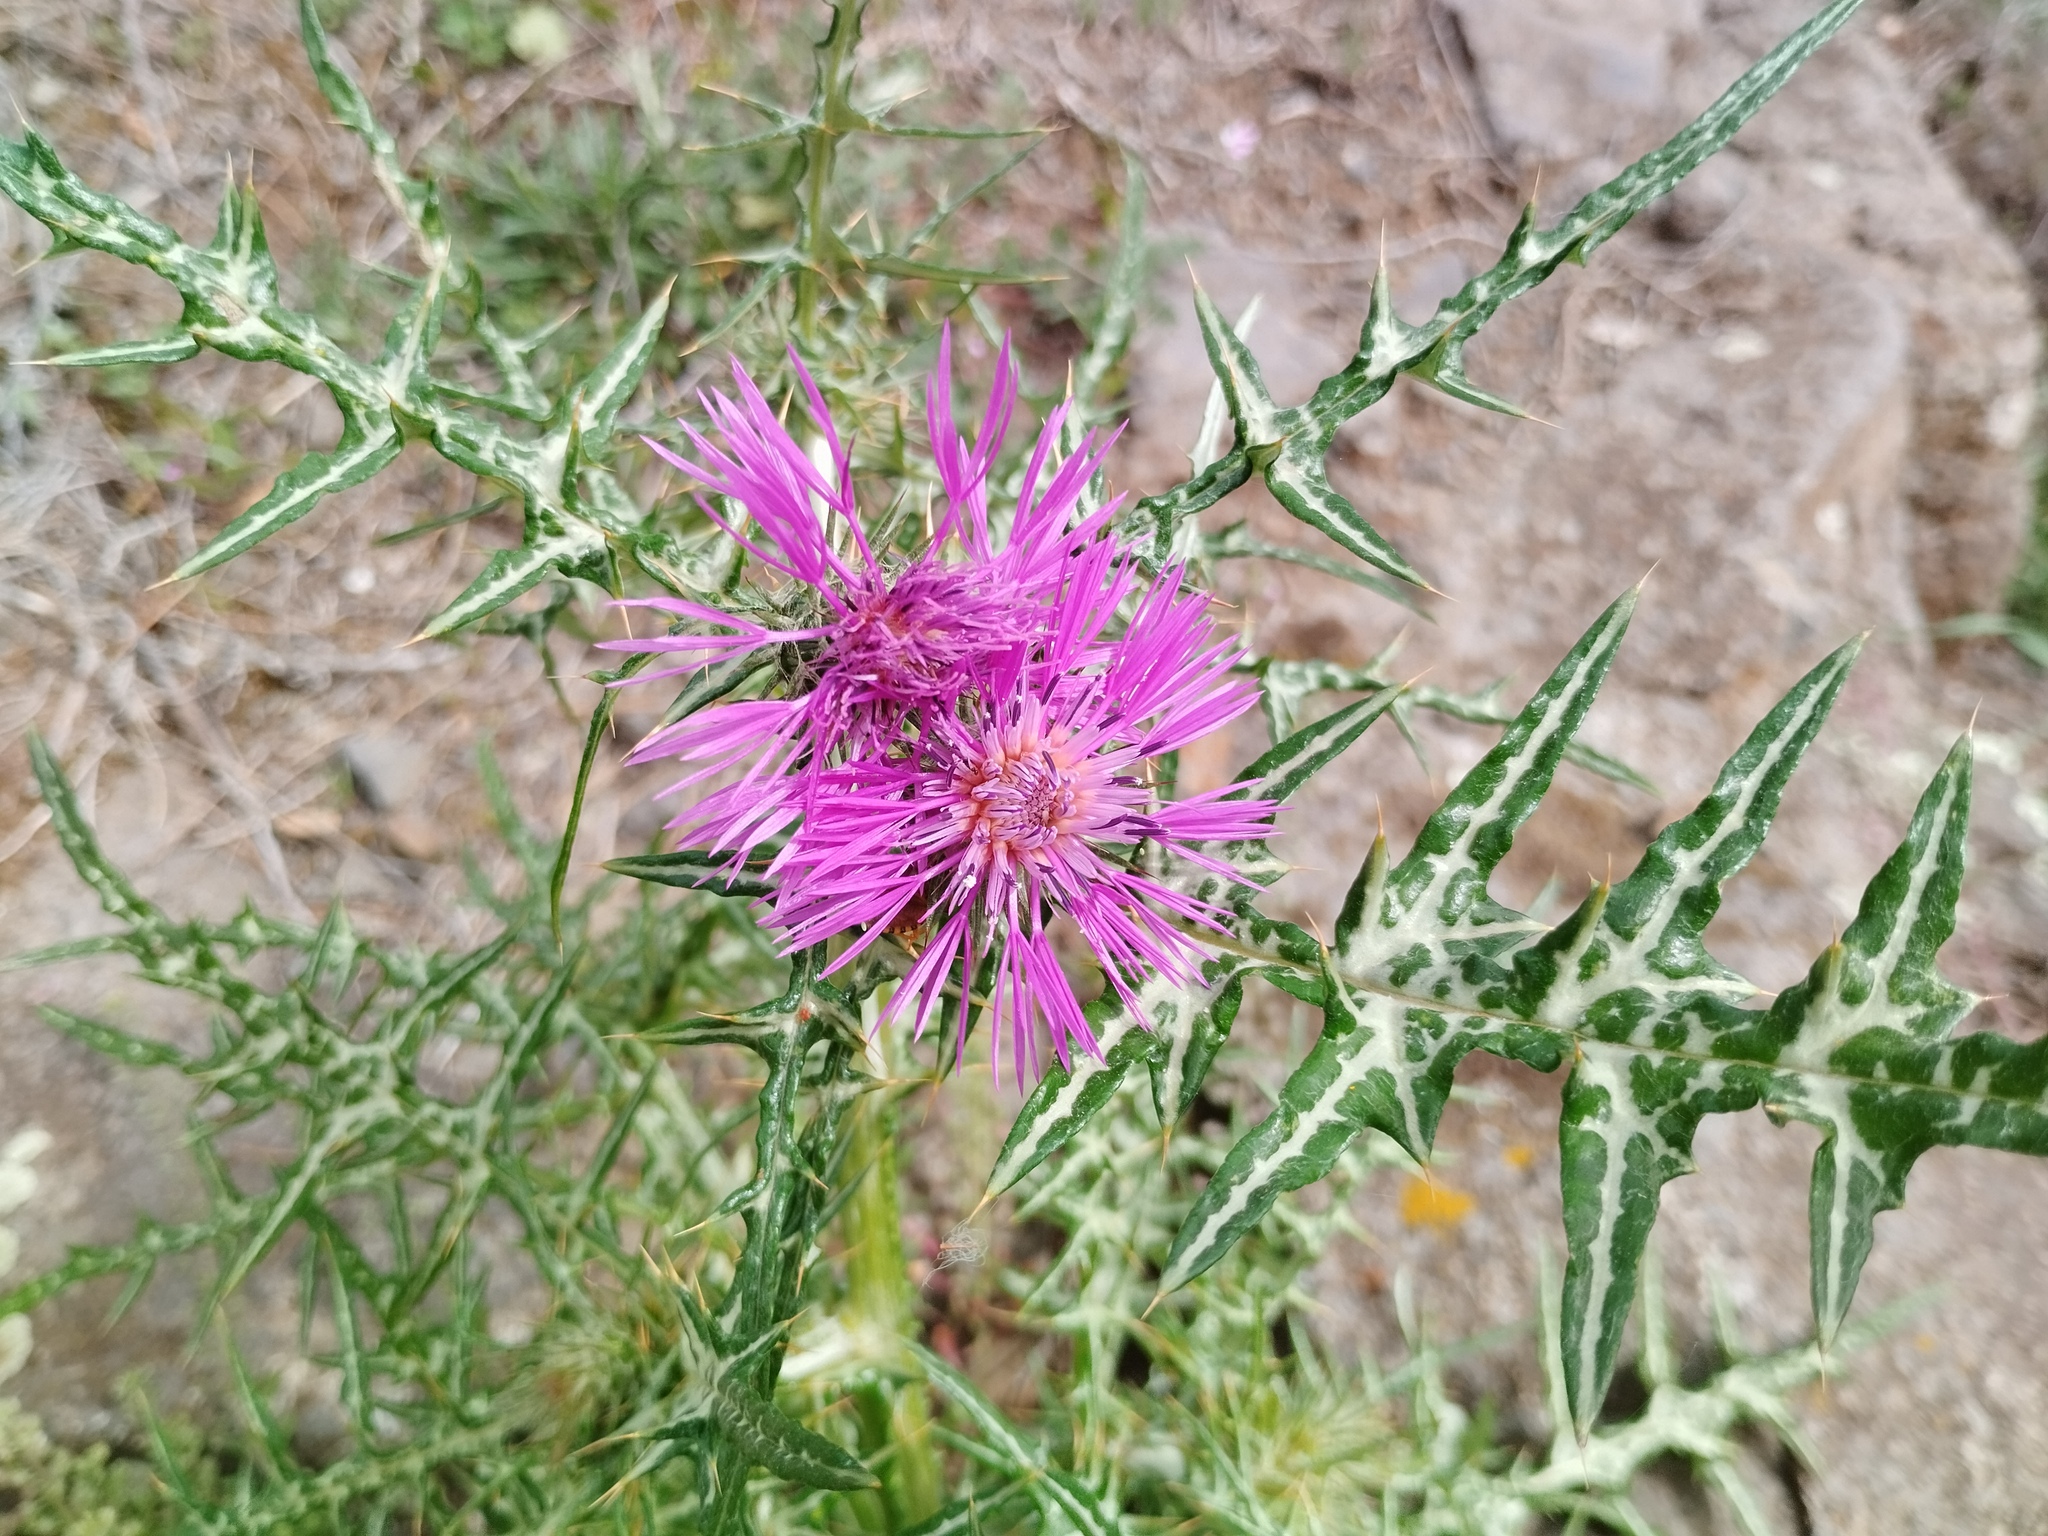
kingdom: Plantae
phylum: Tracheophyta
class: Magnoliopsida
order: Asterales
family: Asteraceae
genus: Galactites
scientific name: Galactites tomentosa
